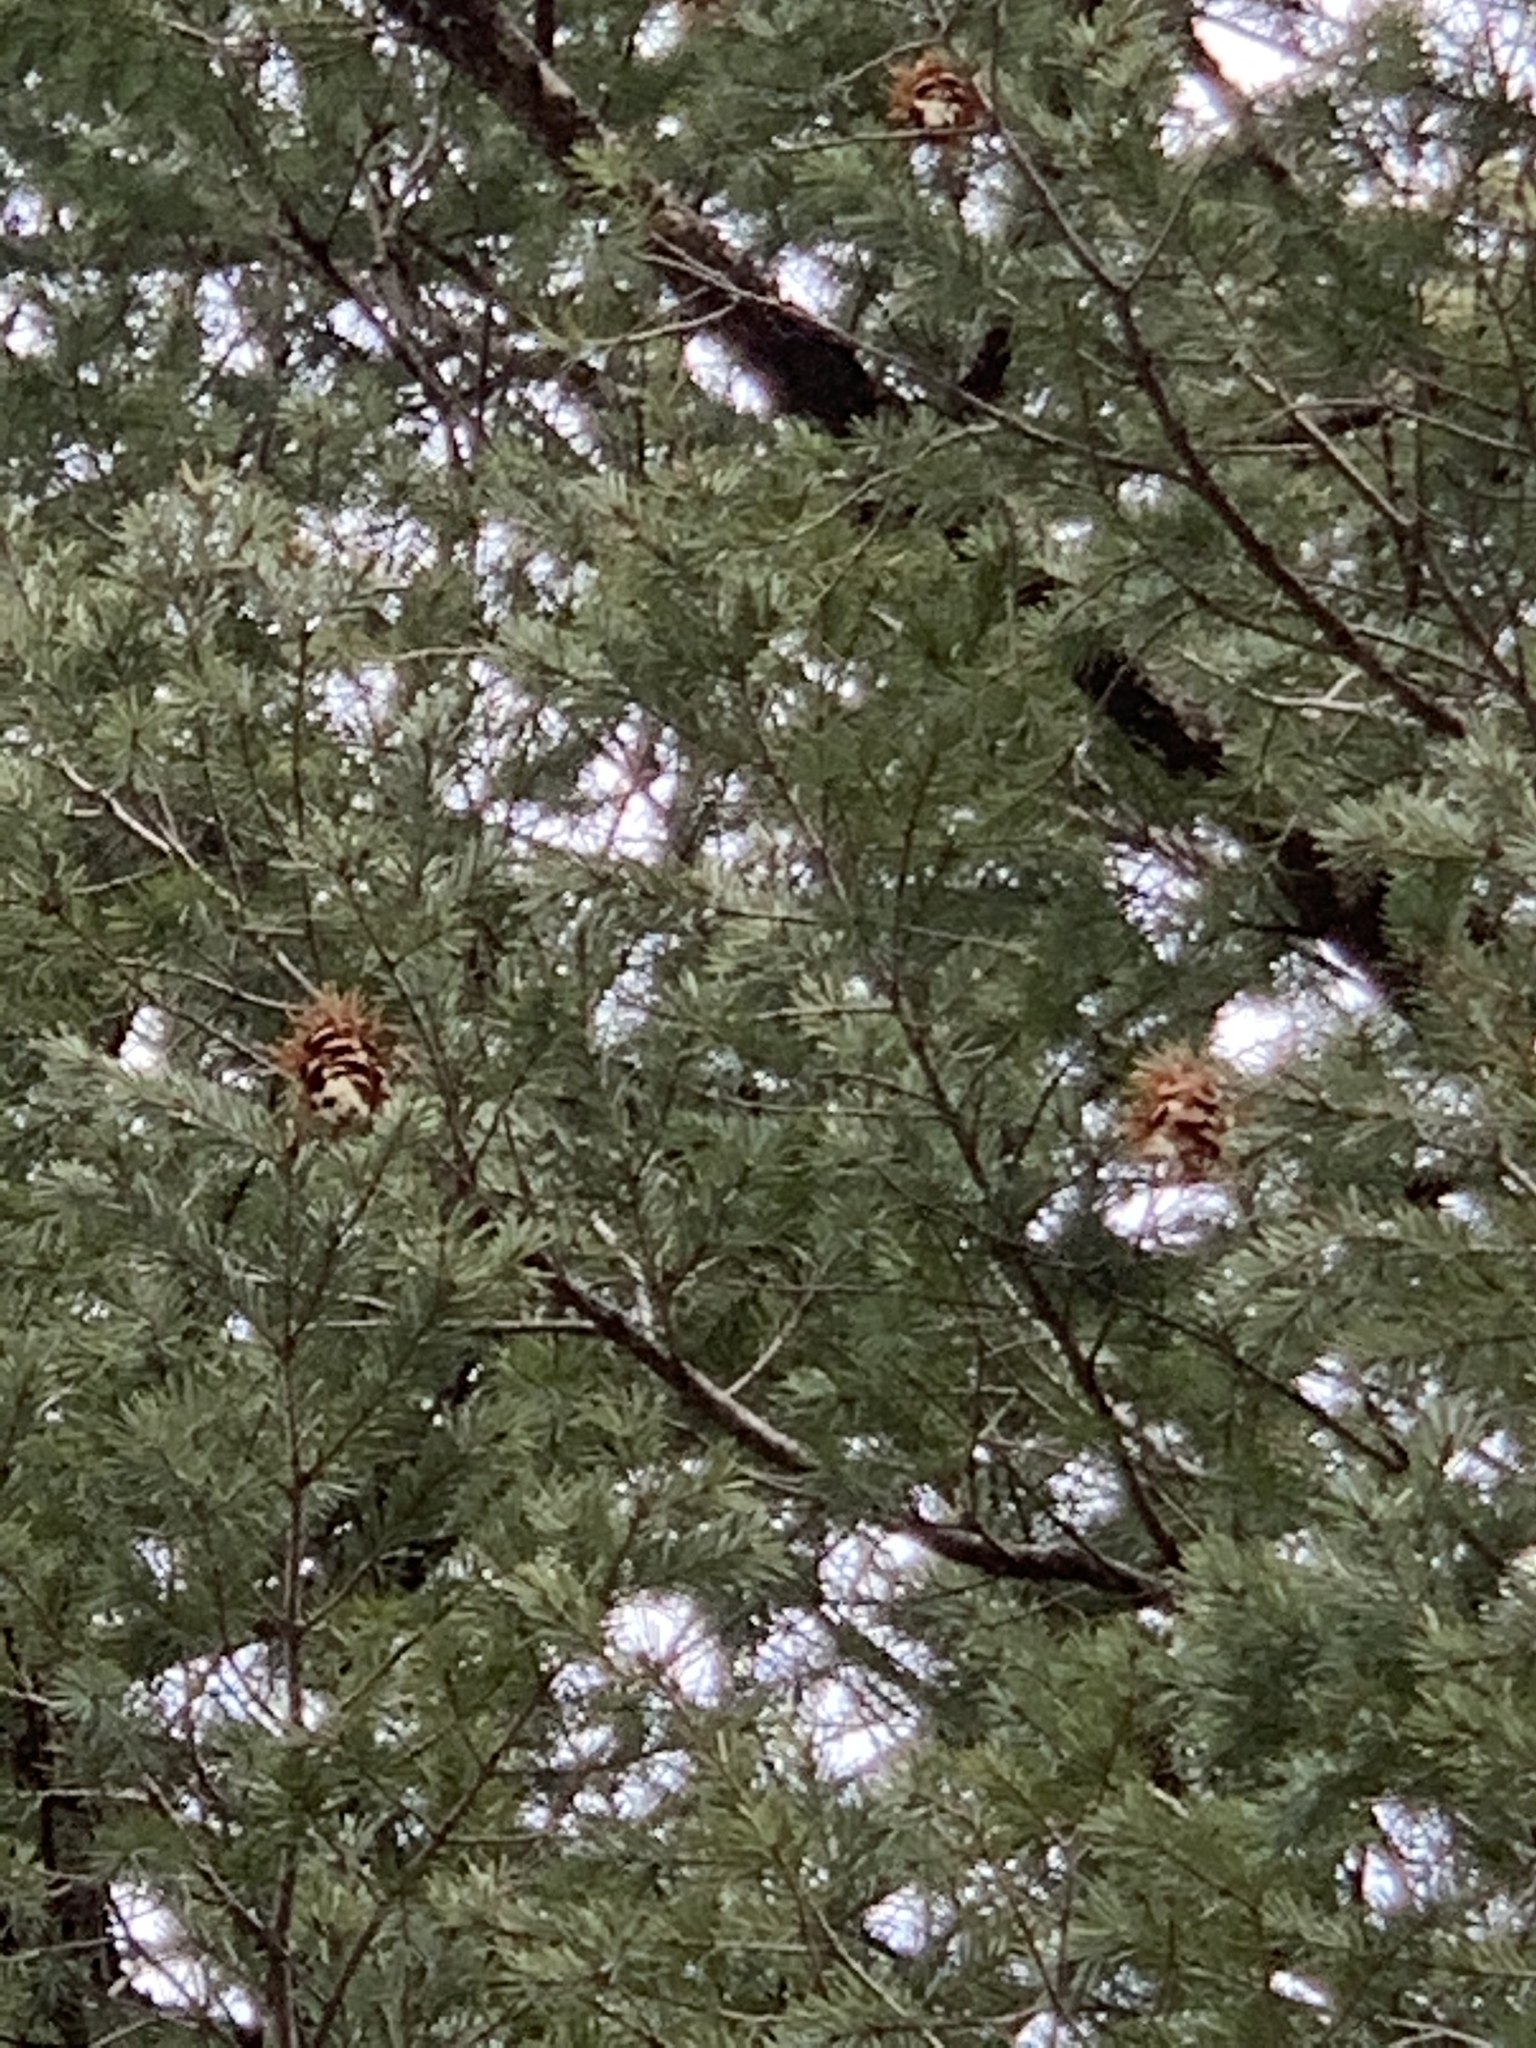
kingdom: Plantae
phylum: Tracheophyta
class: Pinopsida
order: Pinales
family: Pinaceae
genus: Pseudotsuga
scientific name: Pseudotsuga menziesii
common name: Douglas fir
